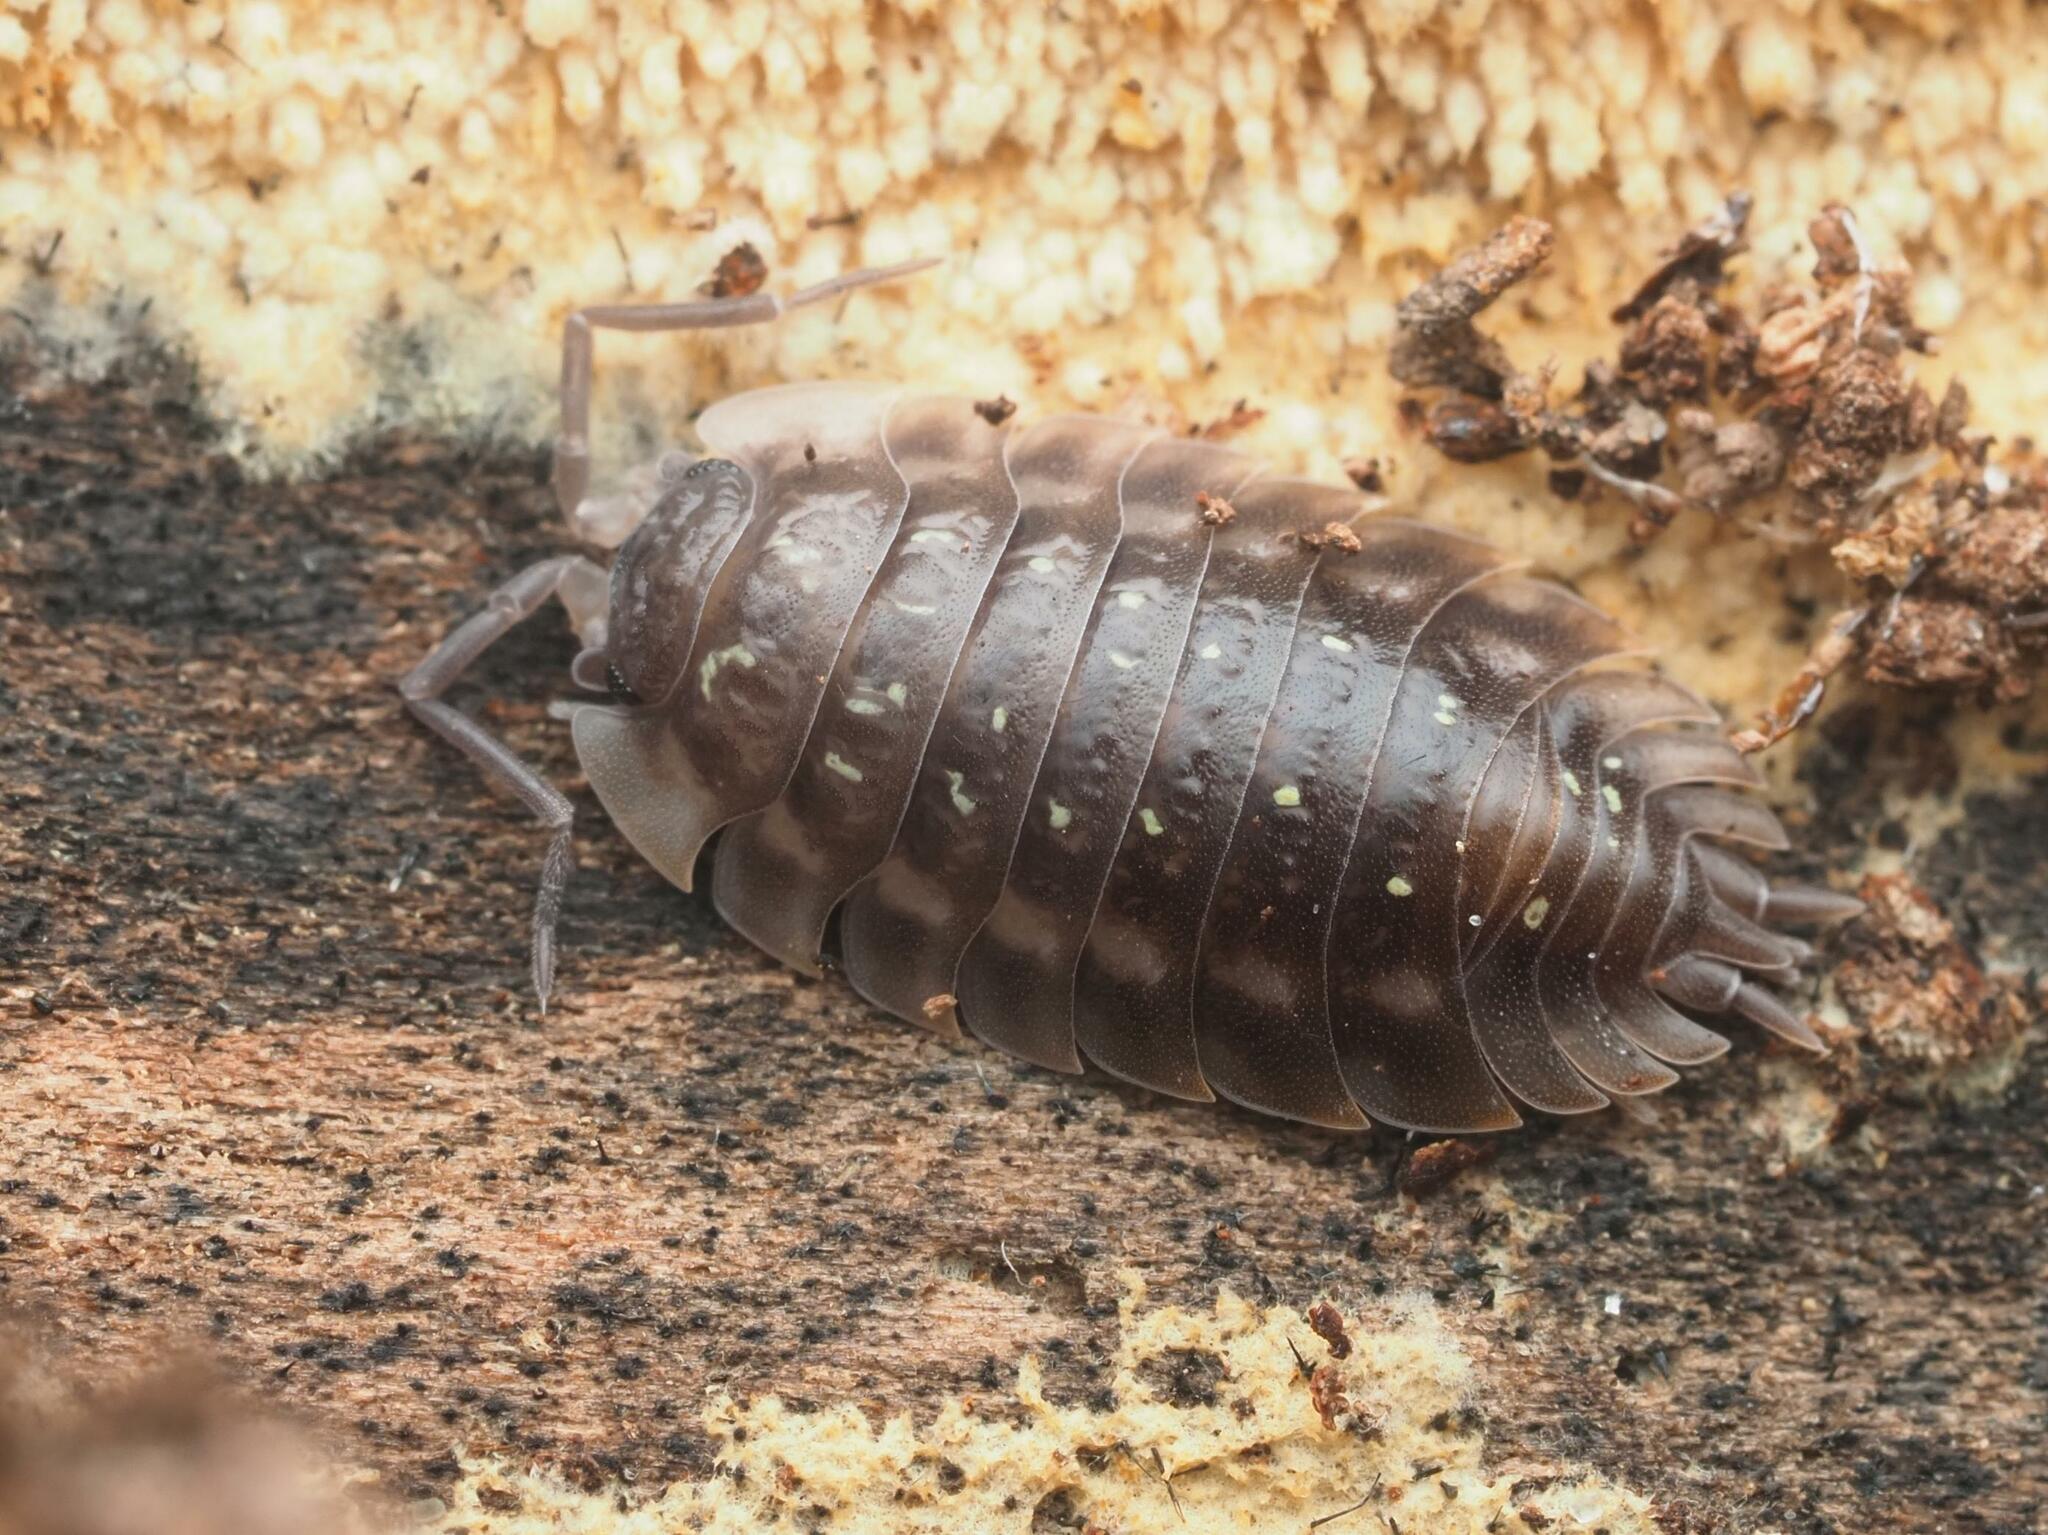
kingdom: Animalia
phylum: Arthropoda
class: Malacostraca
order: Isopoda
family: Oniscidae
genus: Oniscus
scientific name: Oniscus asellus
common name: Common shiny woodlouse
